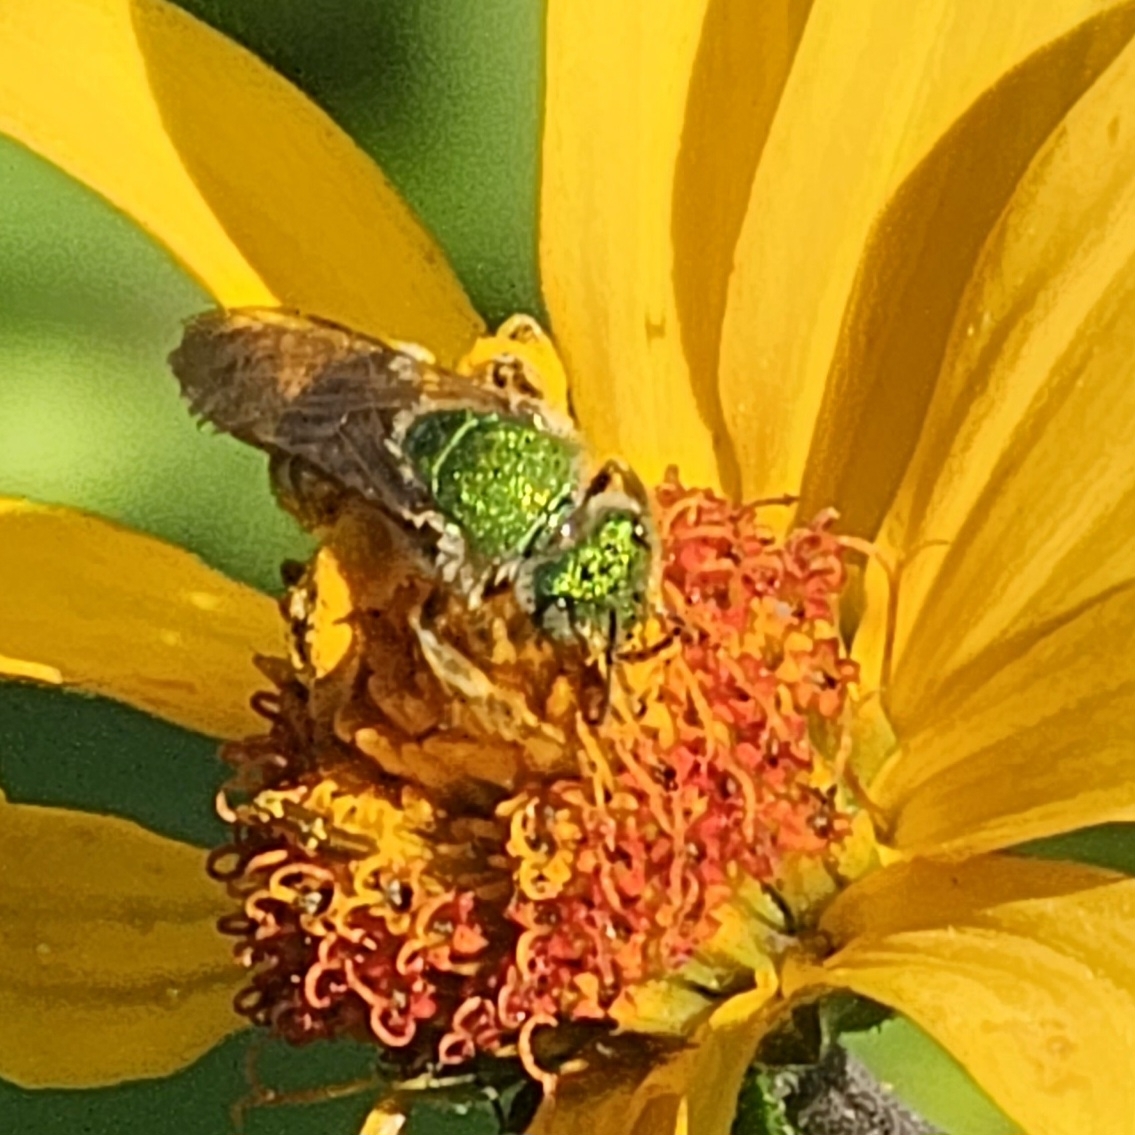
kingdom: Animalia
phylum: Arthropoda
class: Insecta
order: Hymenoptera
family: Halictidae
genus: Agapostemon
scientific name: Agapostemon virescens
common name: Bicolored striped sweat bee
